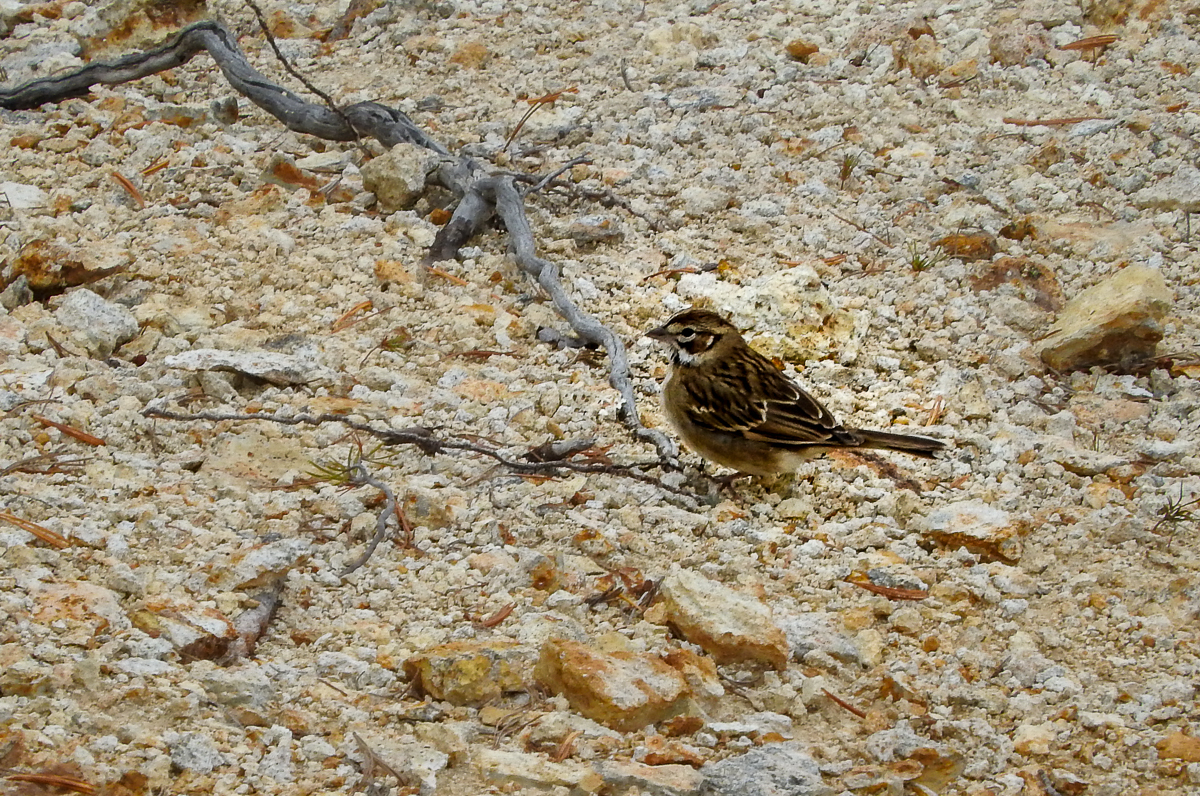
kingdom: Animalia
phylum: Chordata
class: Aves
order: Passeriformes
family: Passerellidae
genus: Chondestes
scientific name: Chondestes grammacus
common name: Lark sparrow
